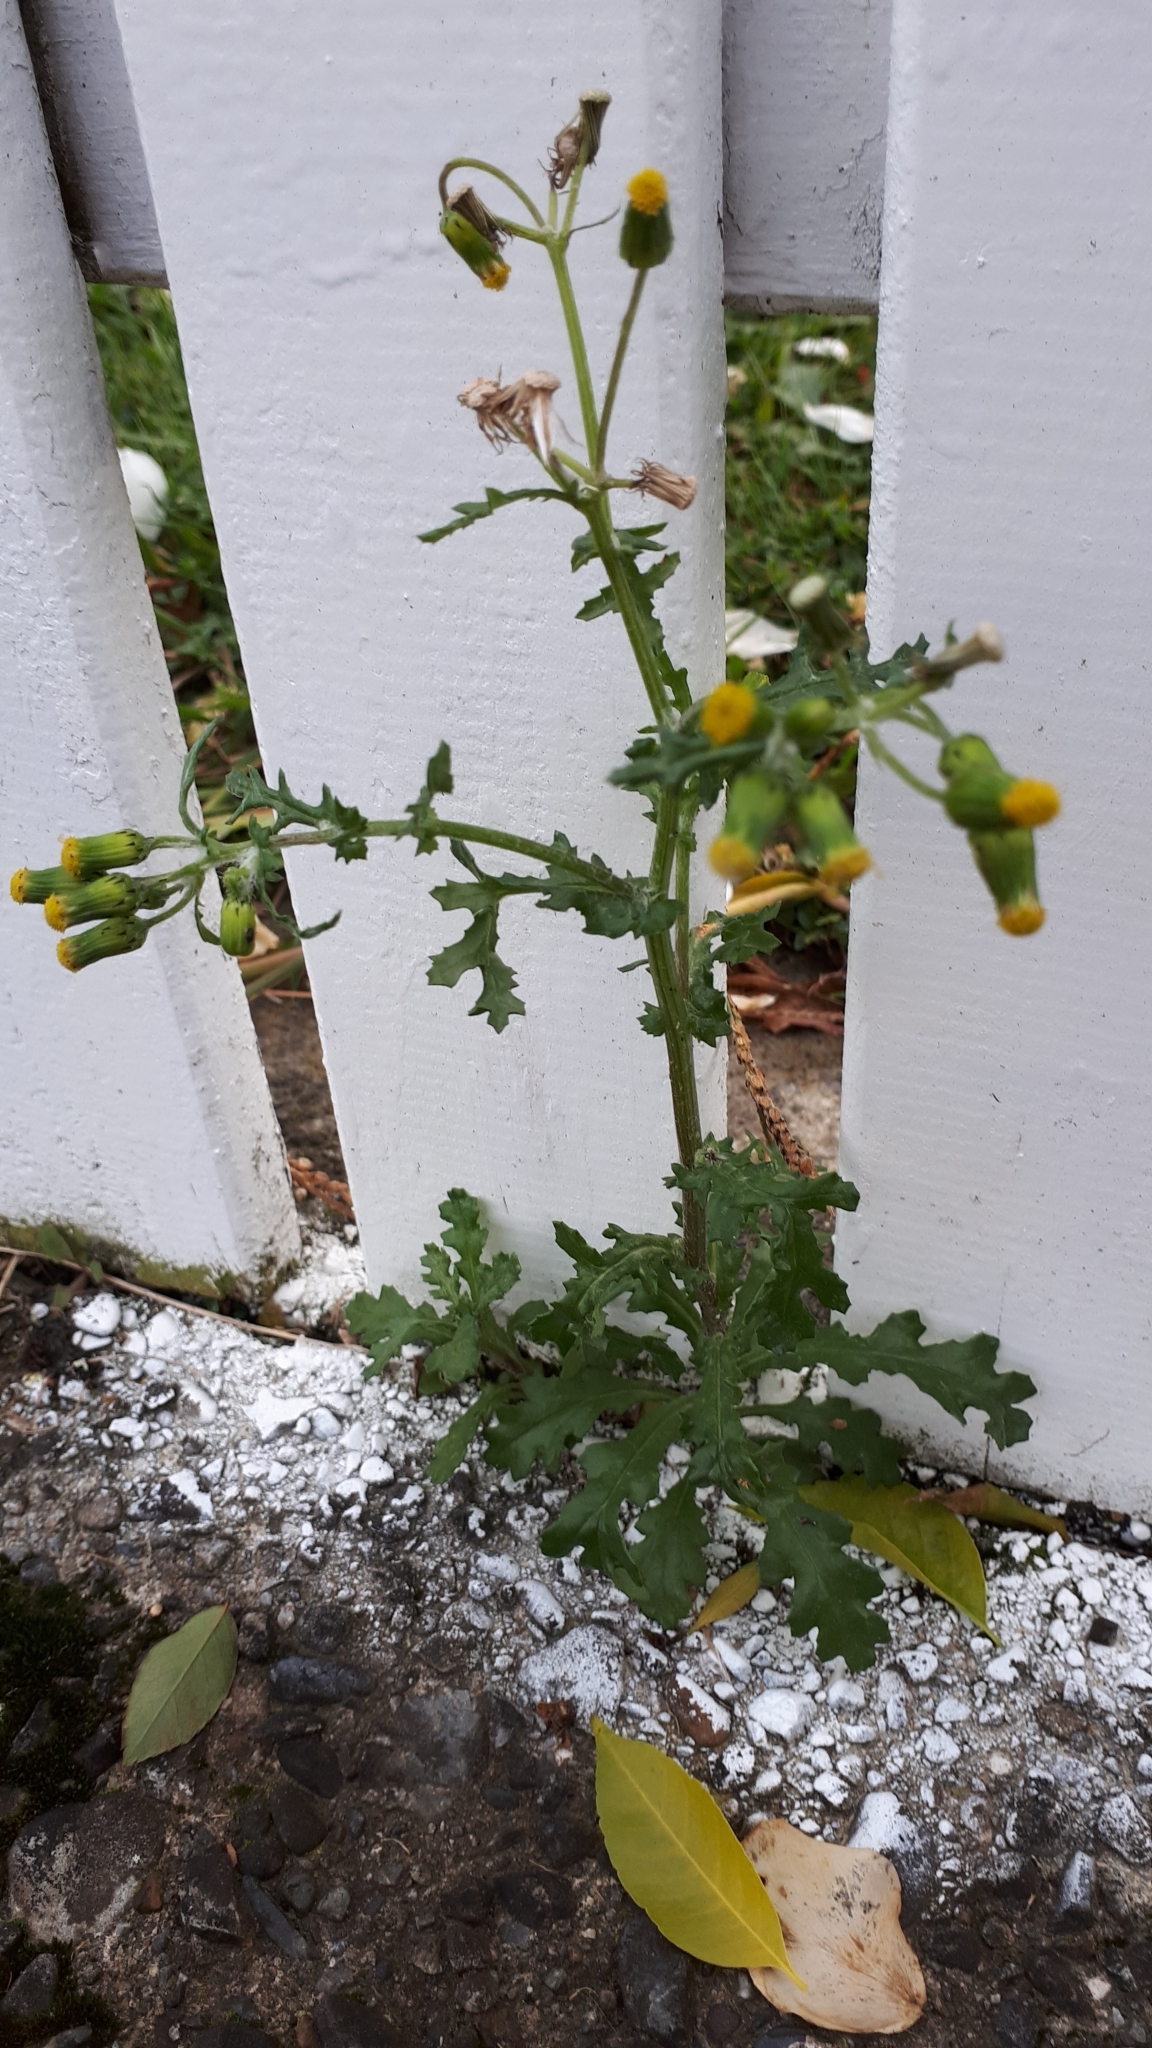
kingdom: Plantae
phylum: Tracheophyta
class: Magnoliopsida
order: Asterales
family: Asteraceae
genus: Senecio
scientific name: Senecio vulgaris
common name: Old-man-in-the-spring
